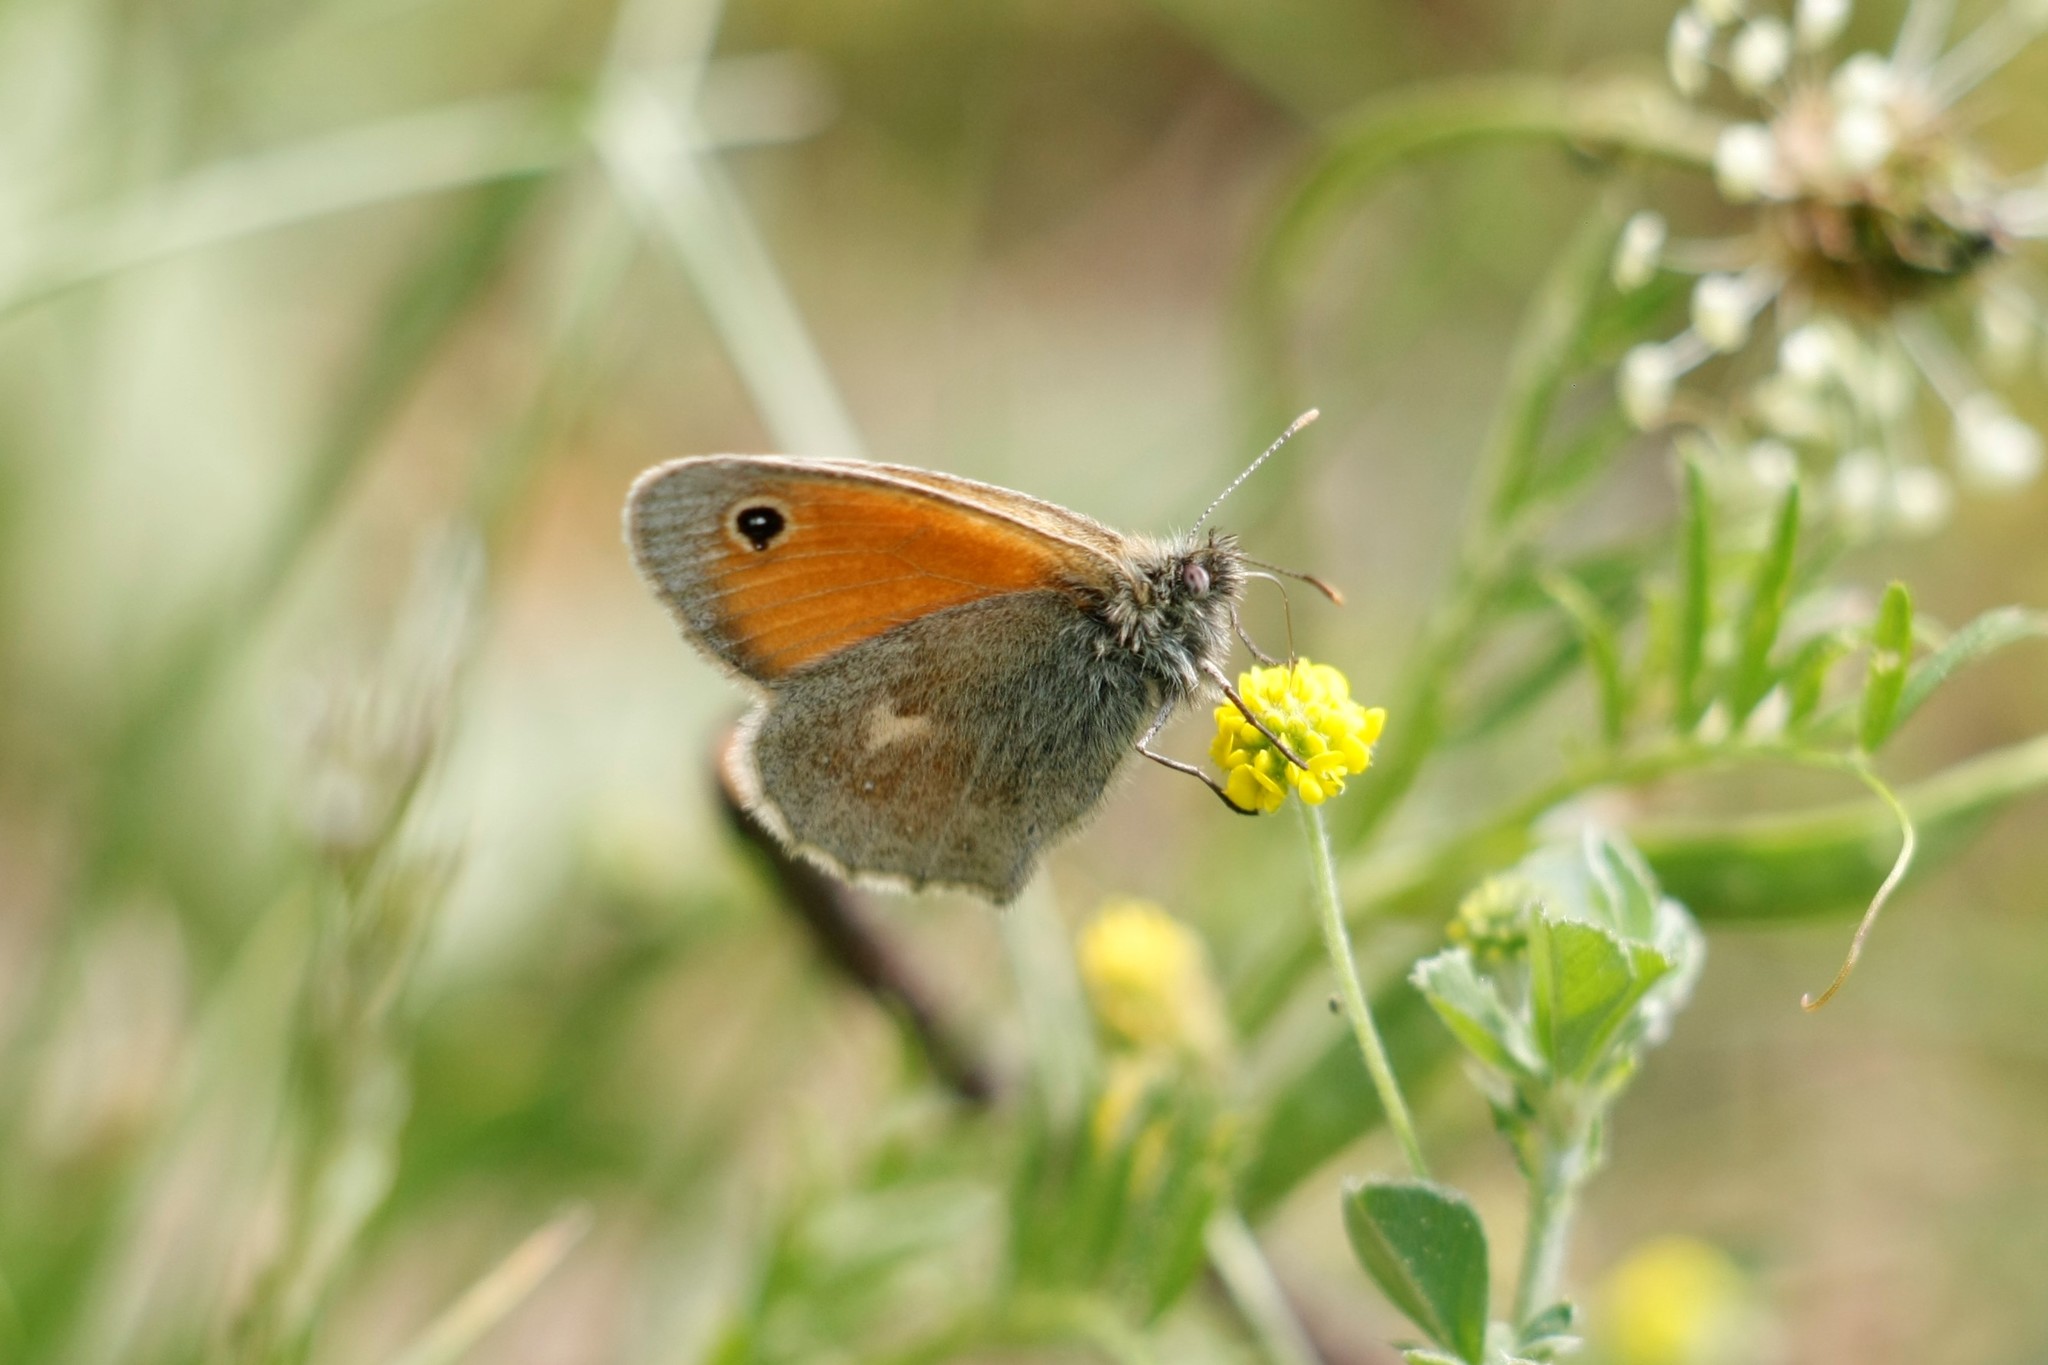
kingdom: Animalia
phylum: Arthropoda
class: Insecta
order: Lepidoptera
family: Nymphalidae
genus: Coenonympha
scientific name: Coenonympha pamphilus
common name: Small heath
